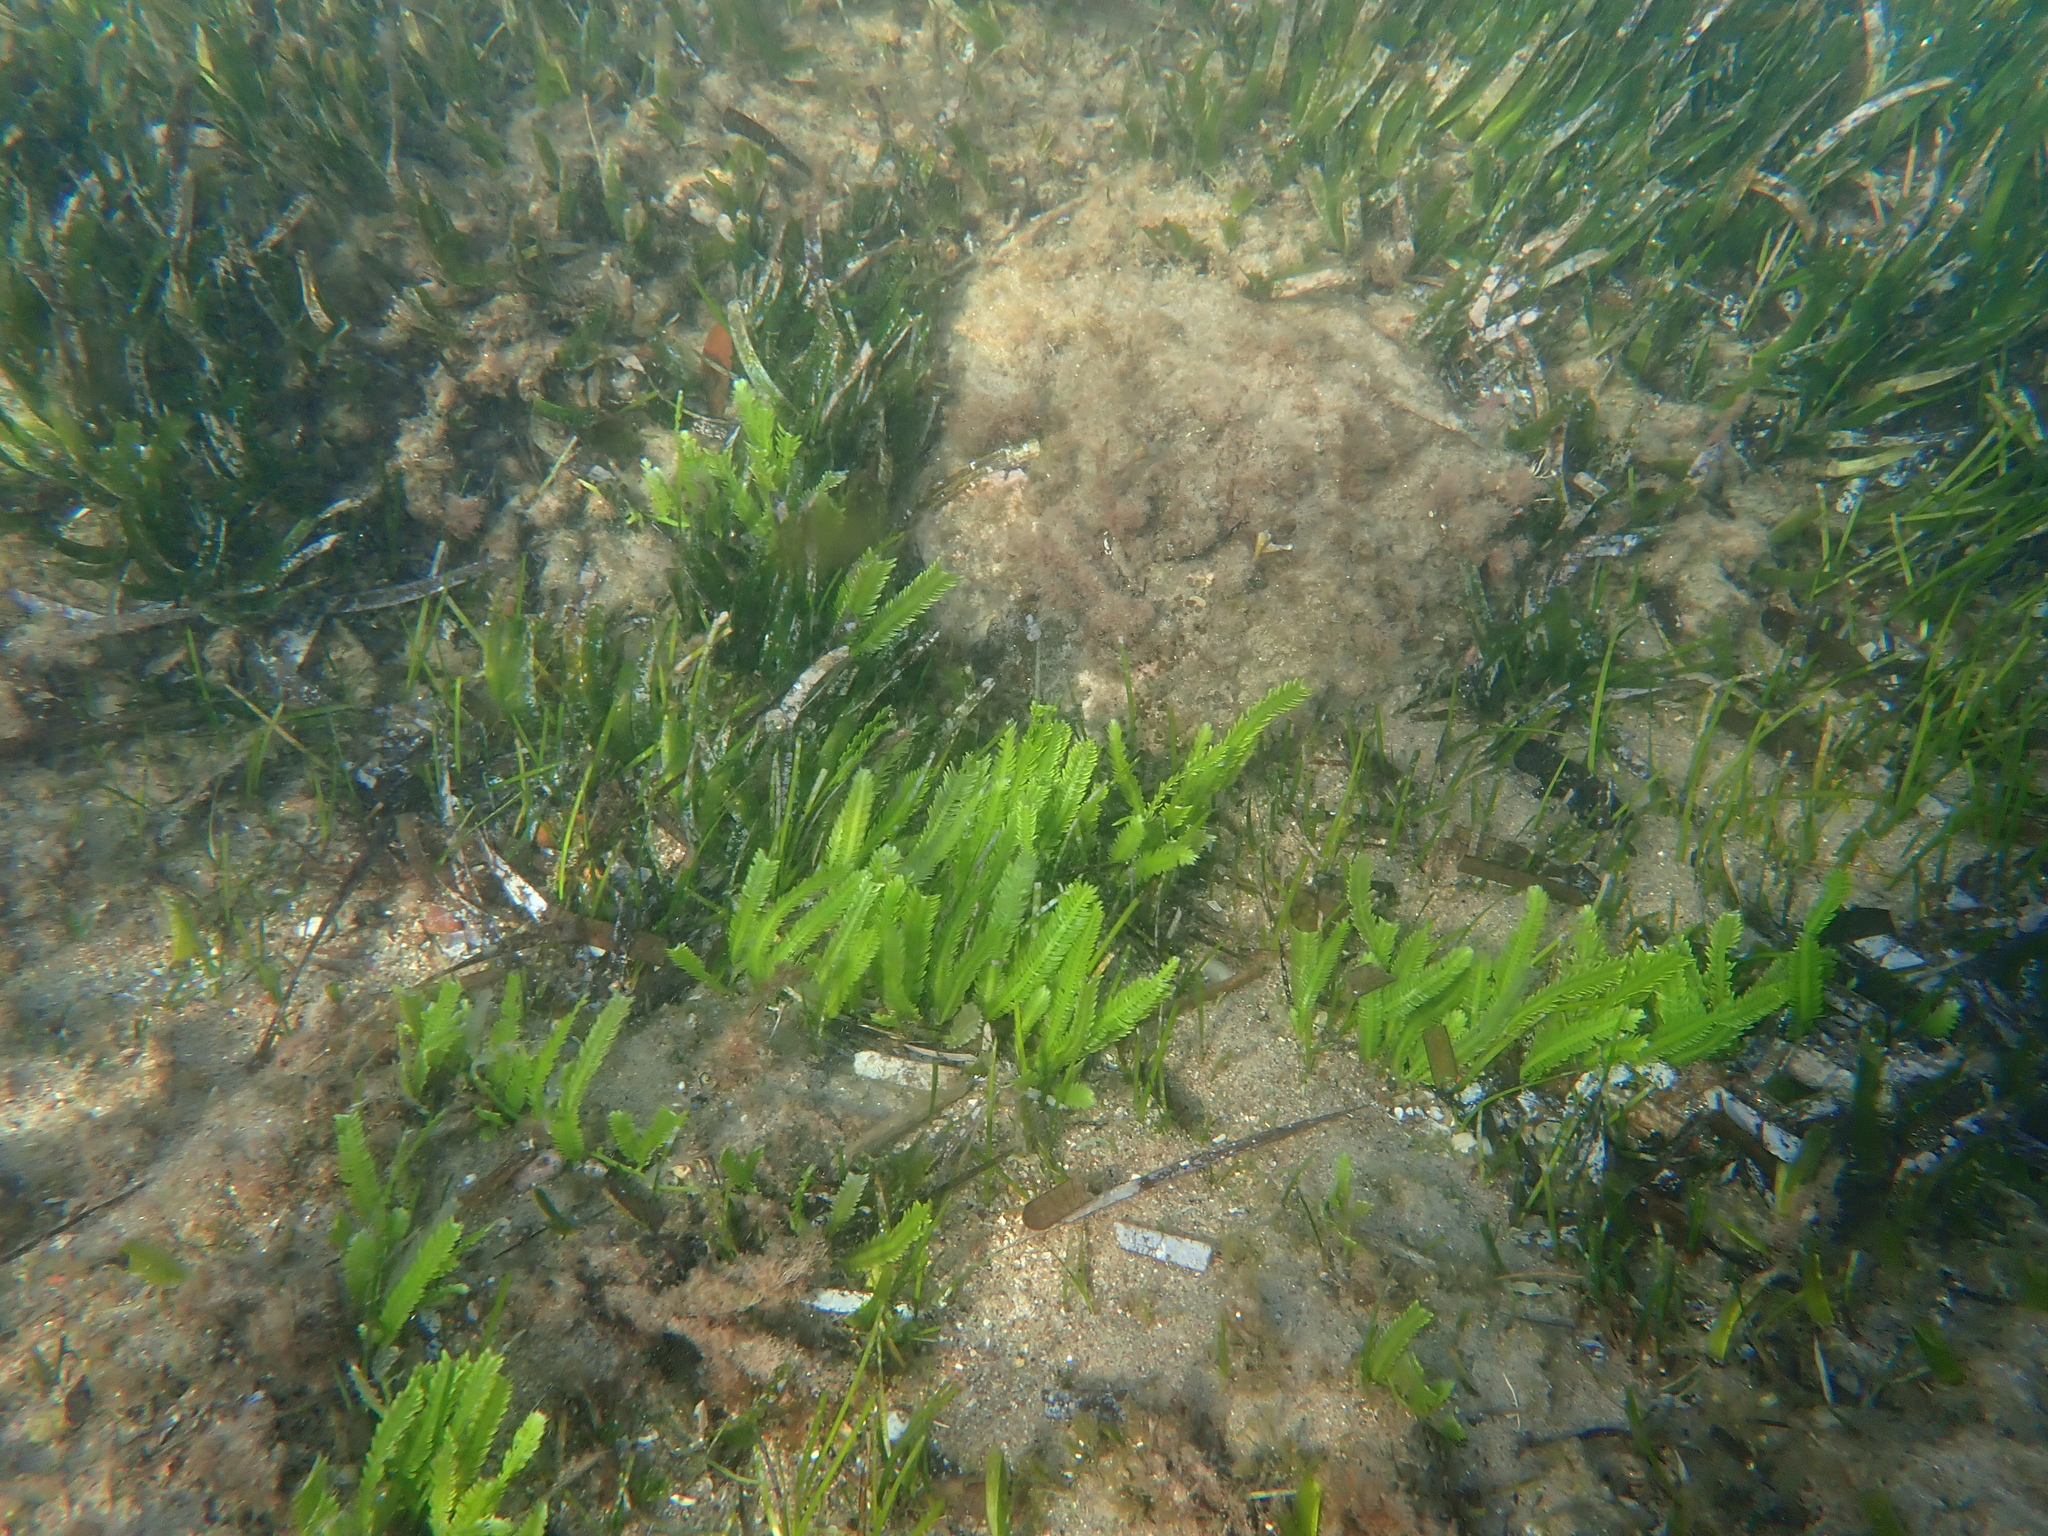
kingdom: Plantae
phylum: Chlorophyta
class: Ulvophyceae
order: Bryopsidales
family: Caulerpaceae
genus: Caulerpa
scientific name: Caulerpa taxifolia
